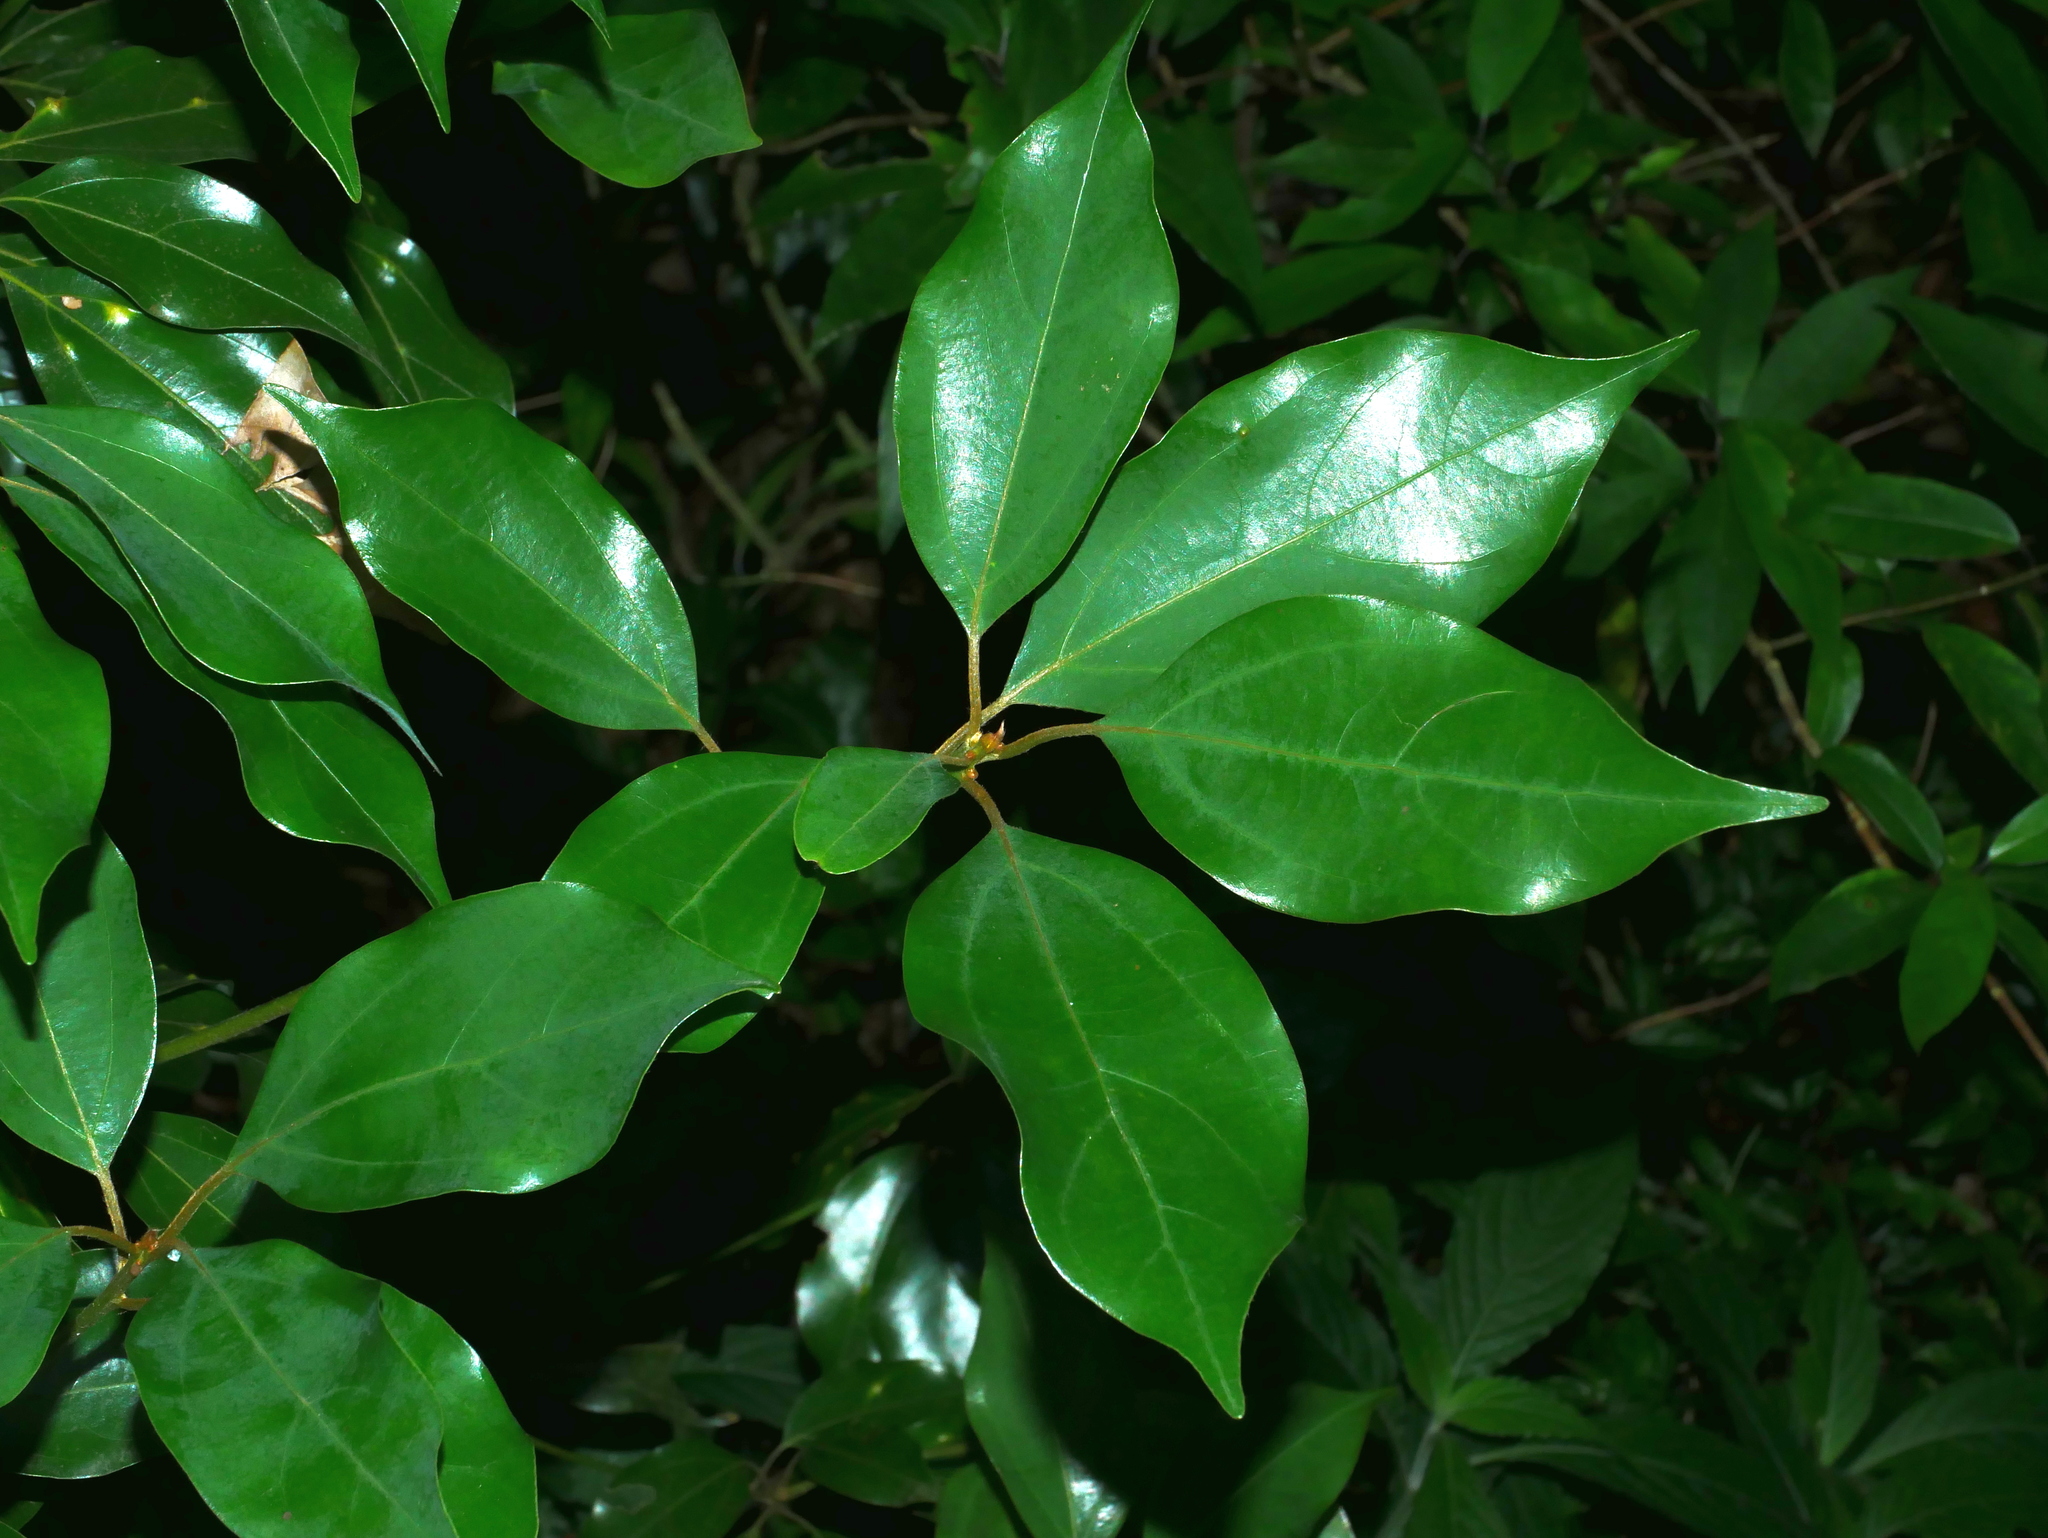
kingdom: Plantae
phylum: Tracheophyta
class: Magnoliopsida
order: Laurales
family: Lauraceae
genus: Neolitsea
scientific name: Neolitsea sericea
